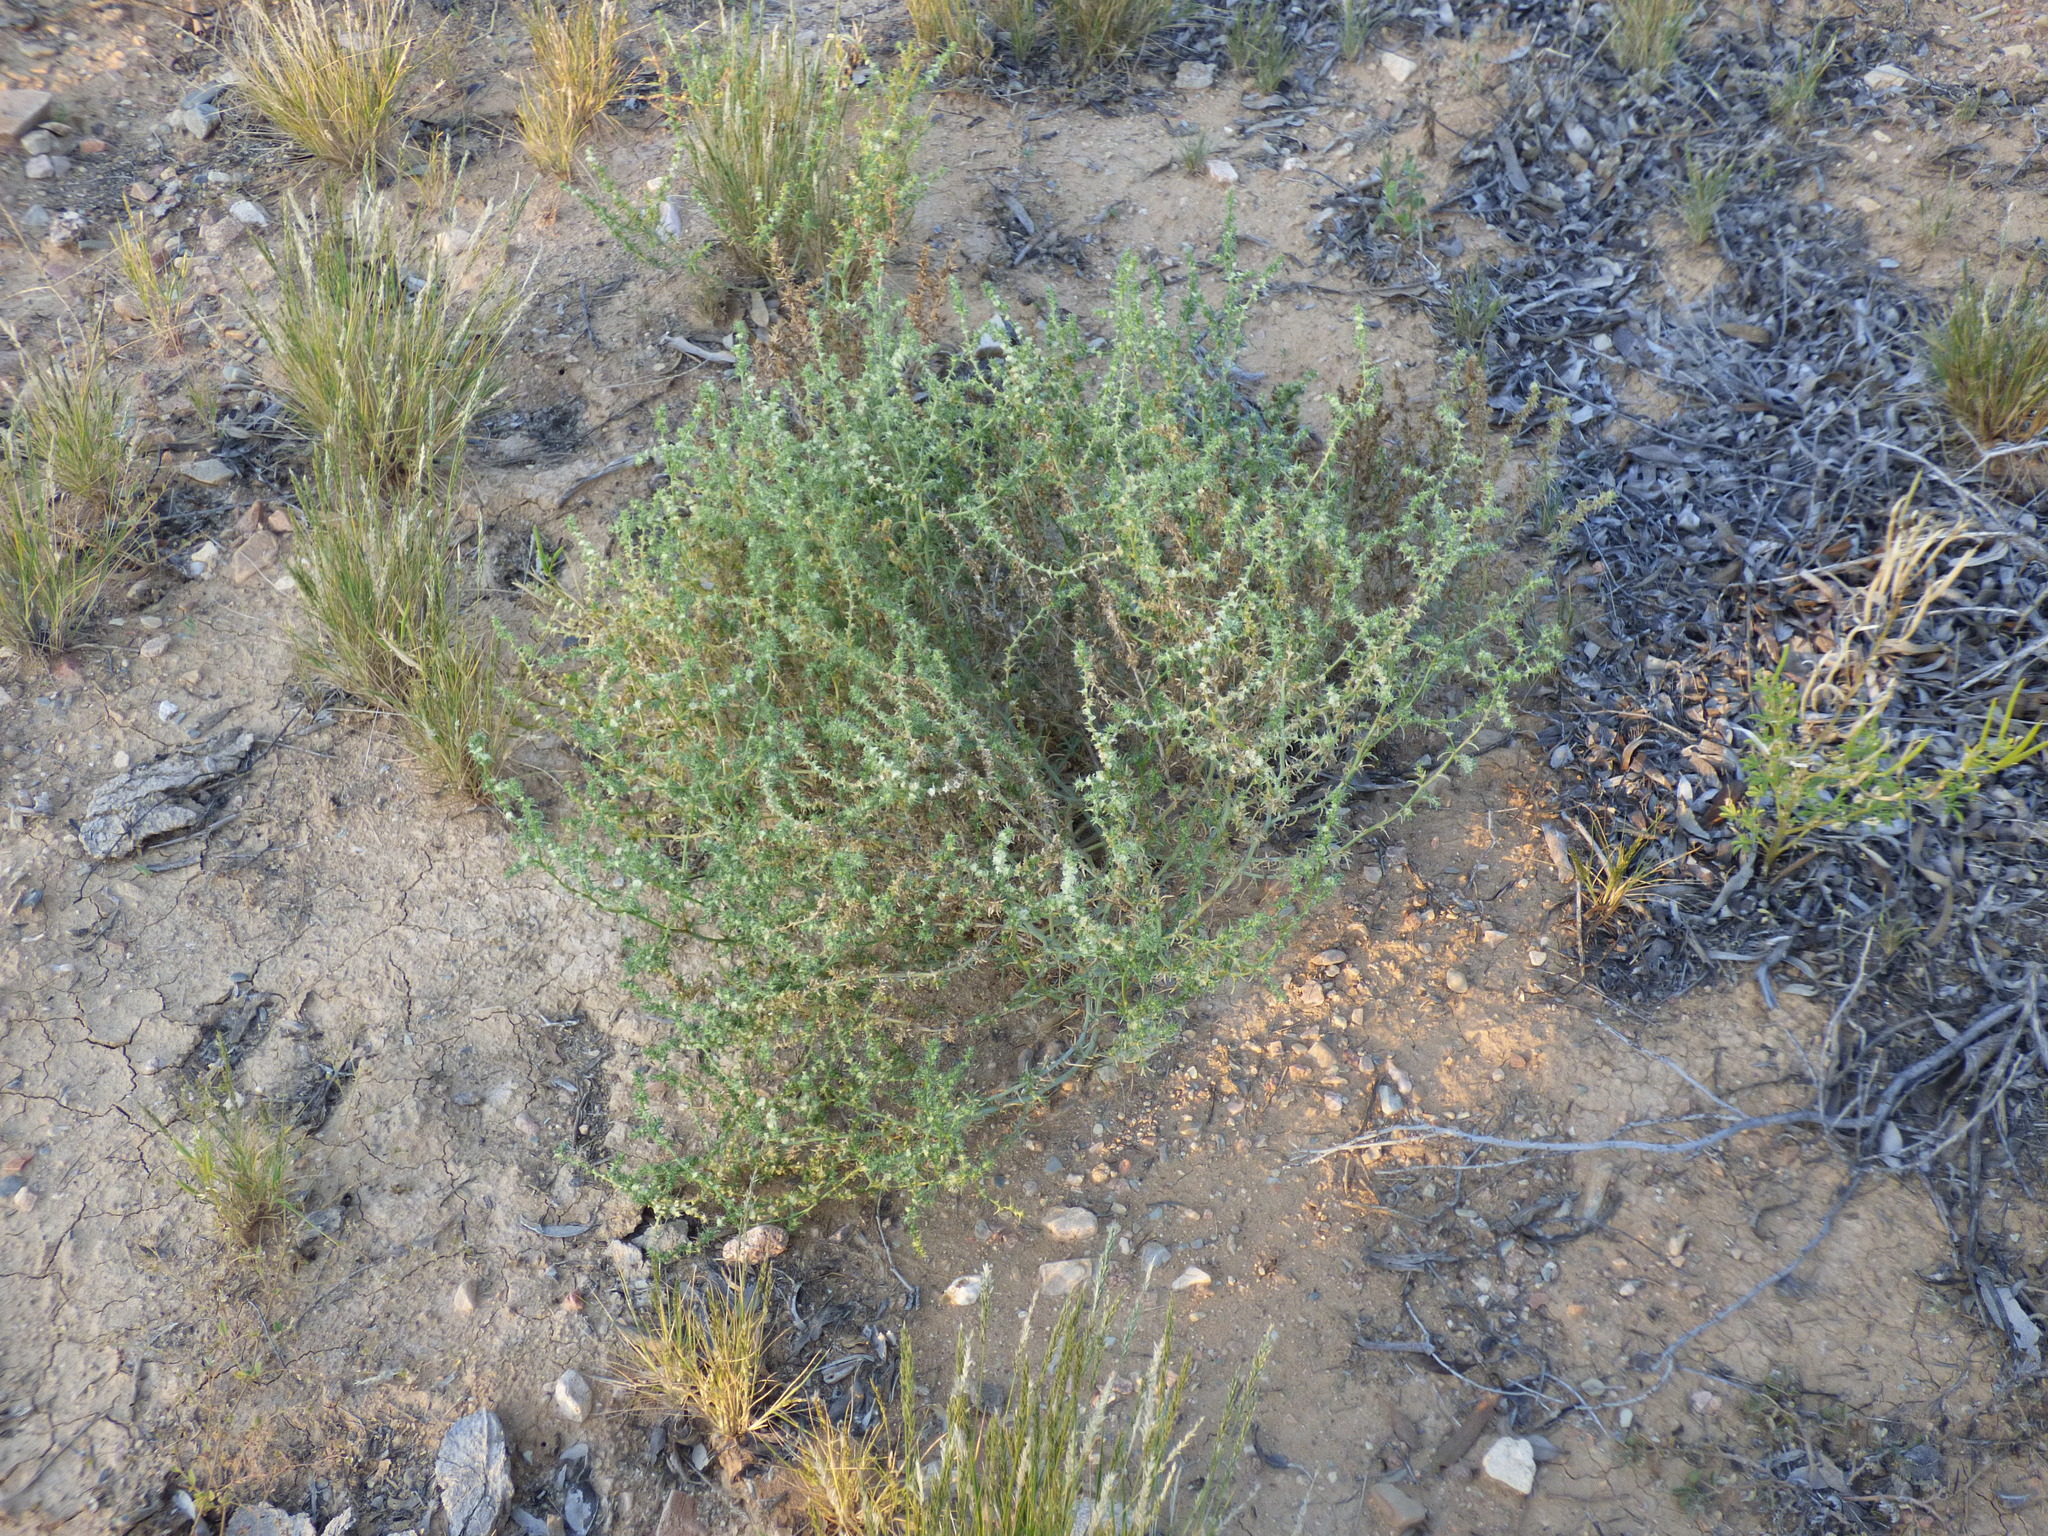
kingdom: Plantae
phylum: Tracheophyta
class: Magnoliopsida
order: Caryophyllales
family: Amaranthaceae
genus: Salsola
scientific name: Salsola australis
